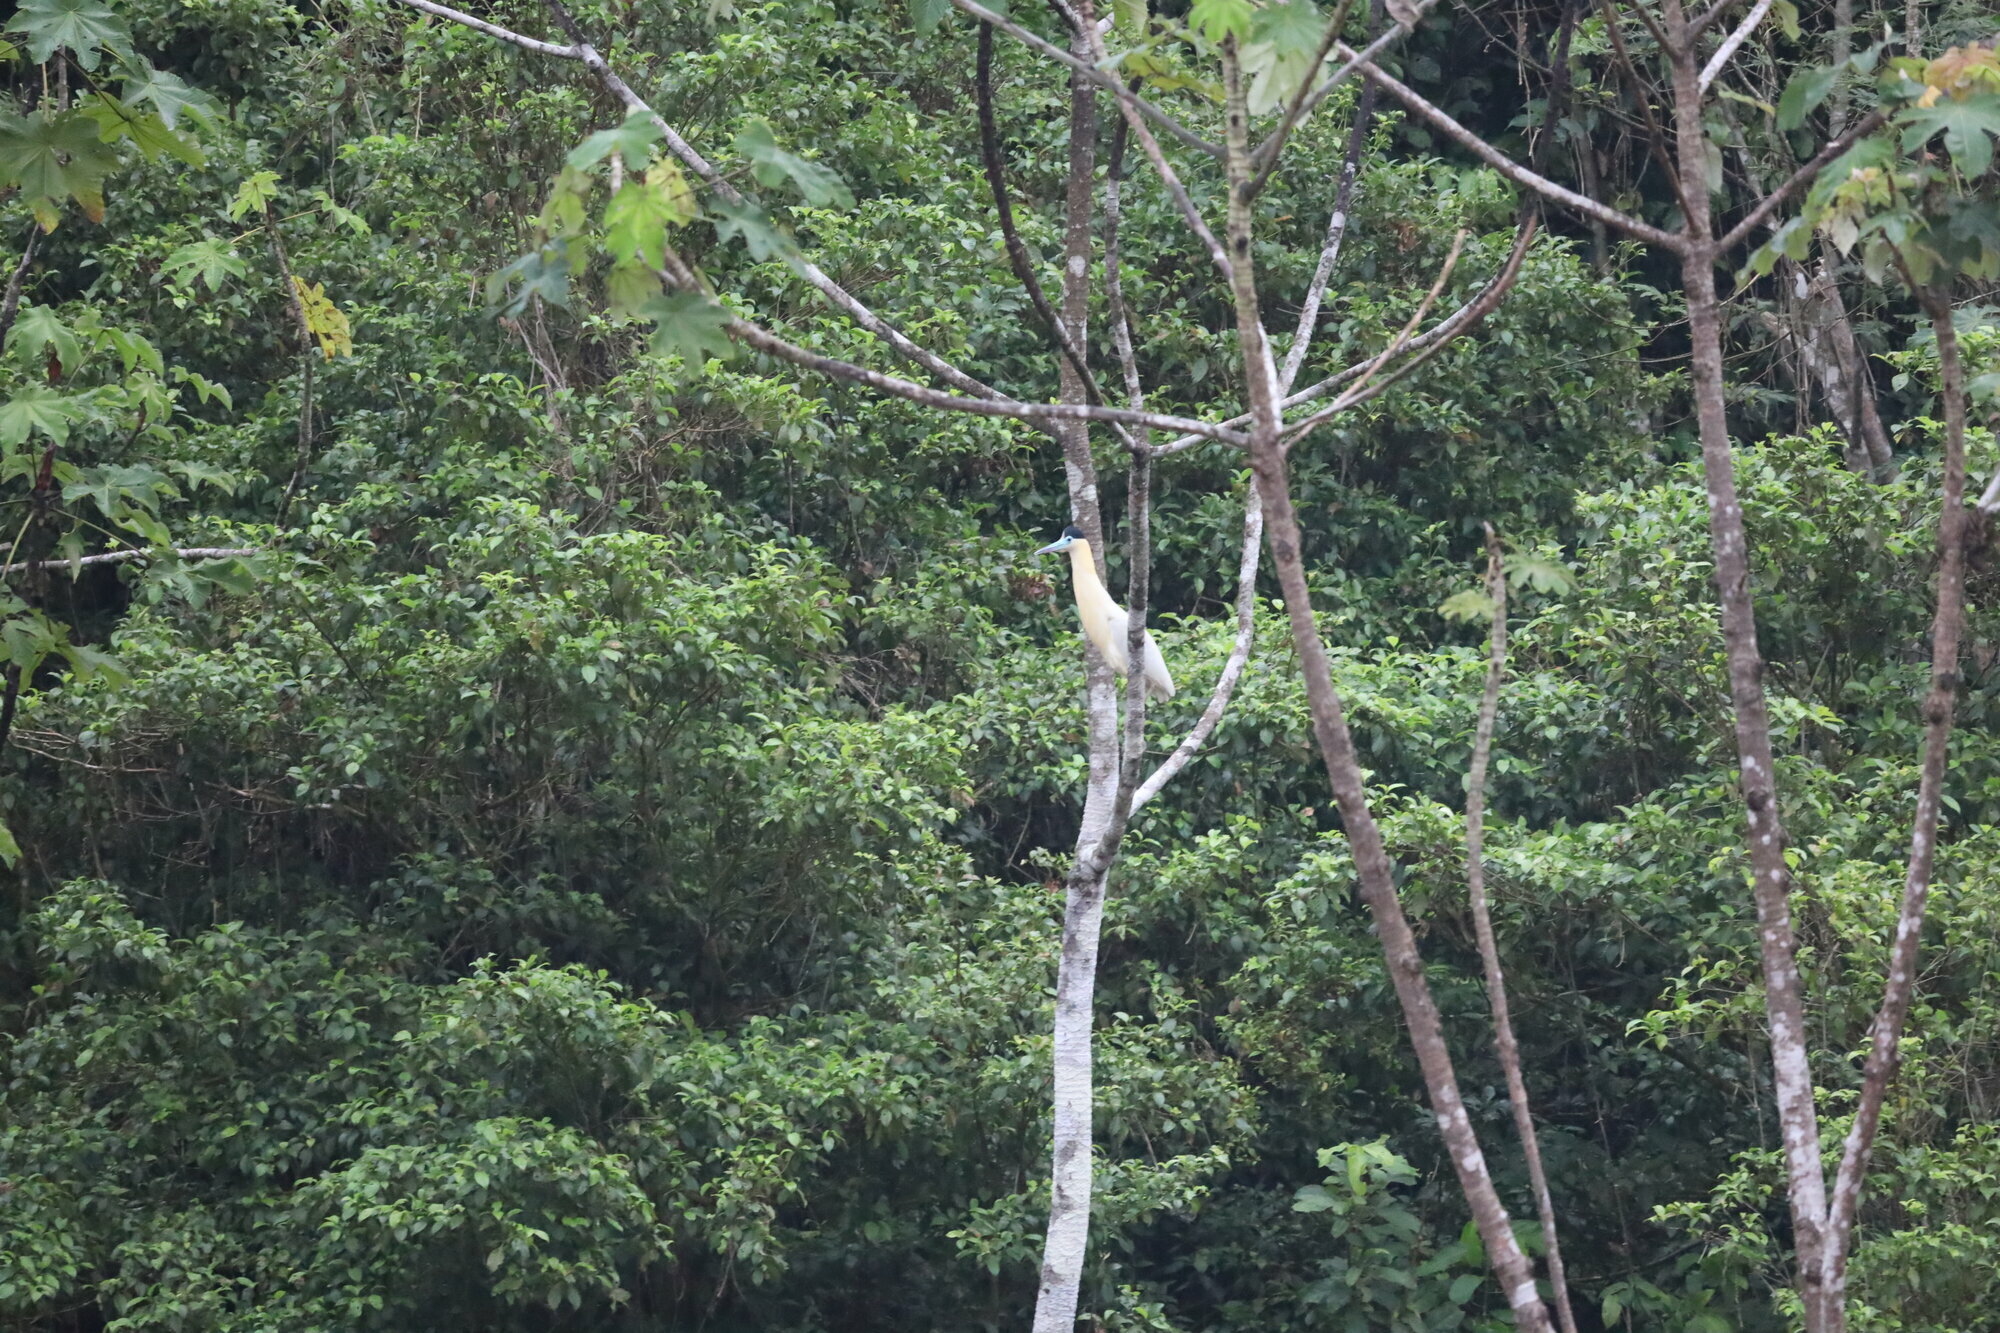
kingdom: Animalia
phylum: Chordata
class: Aves
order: Pelecaniformes
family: Ardeidae
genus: Pilherodius
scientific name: Pilherodius pileatus
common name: Capped heron
